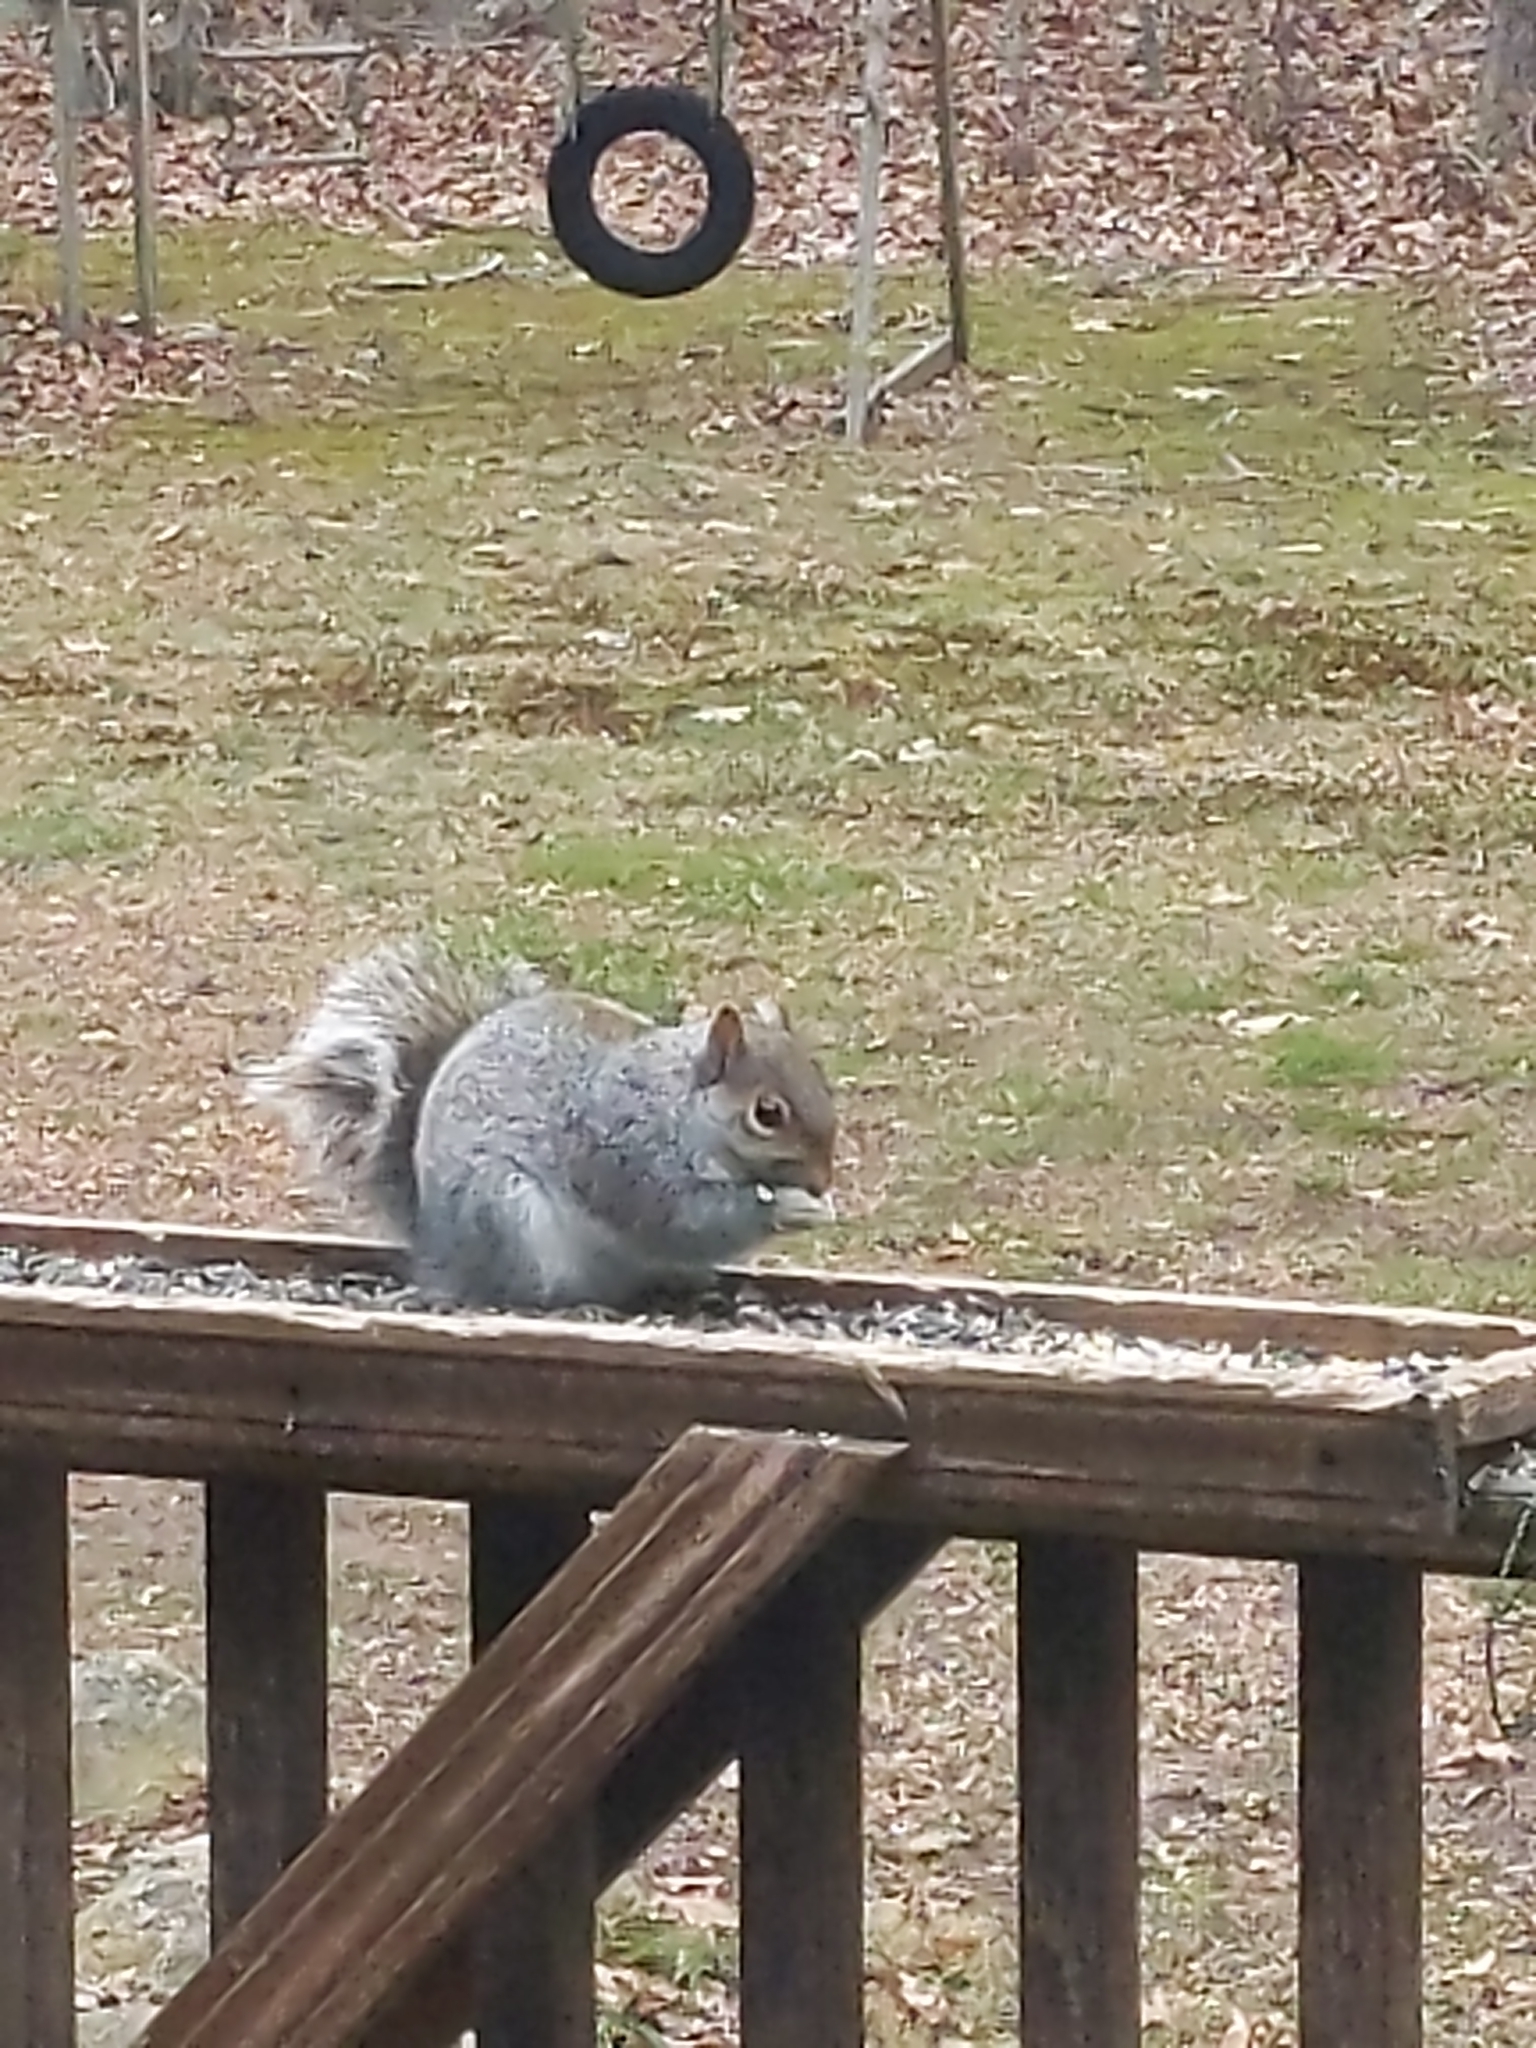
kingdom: Animalia
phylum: Chordata
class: Mammalia
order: Rodentia
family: Sciuridae
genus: Sciurus
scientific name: Sciurus carolinensis
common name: Eastern gray squirrel
